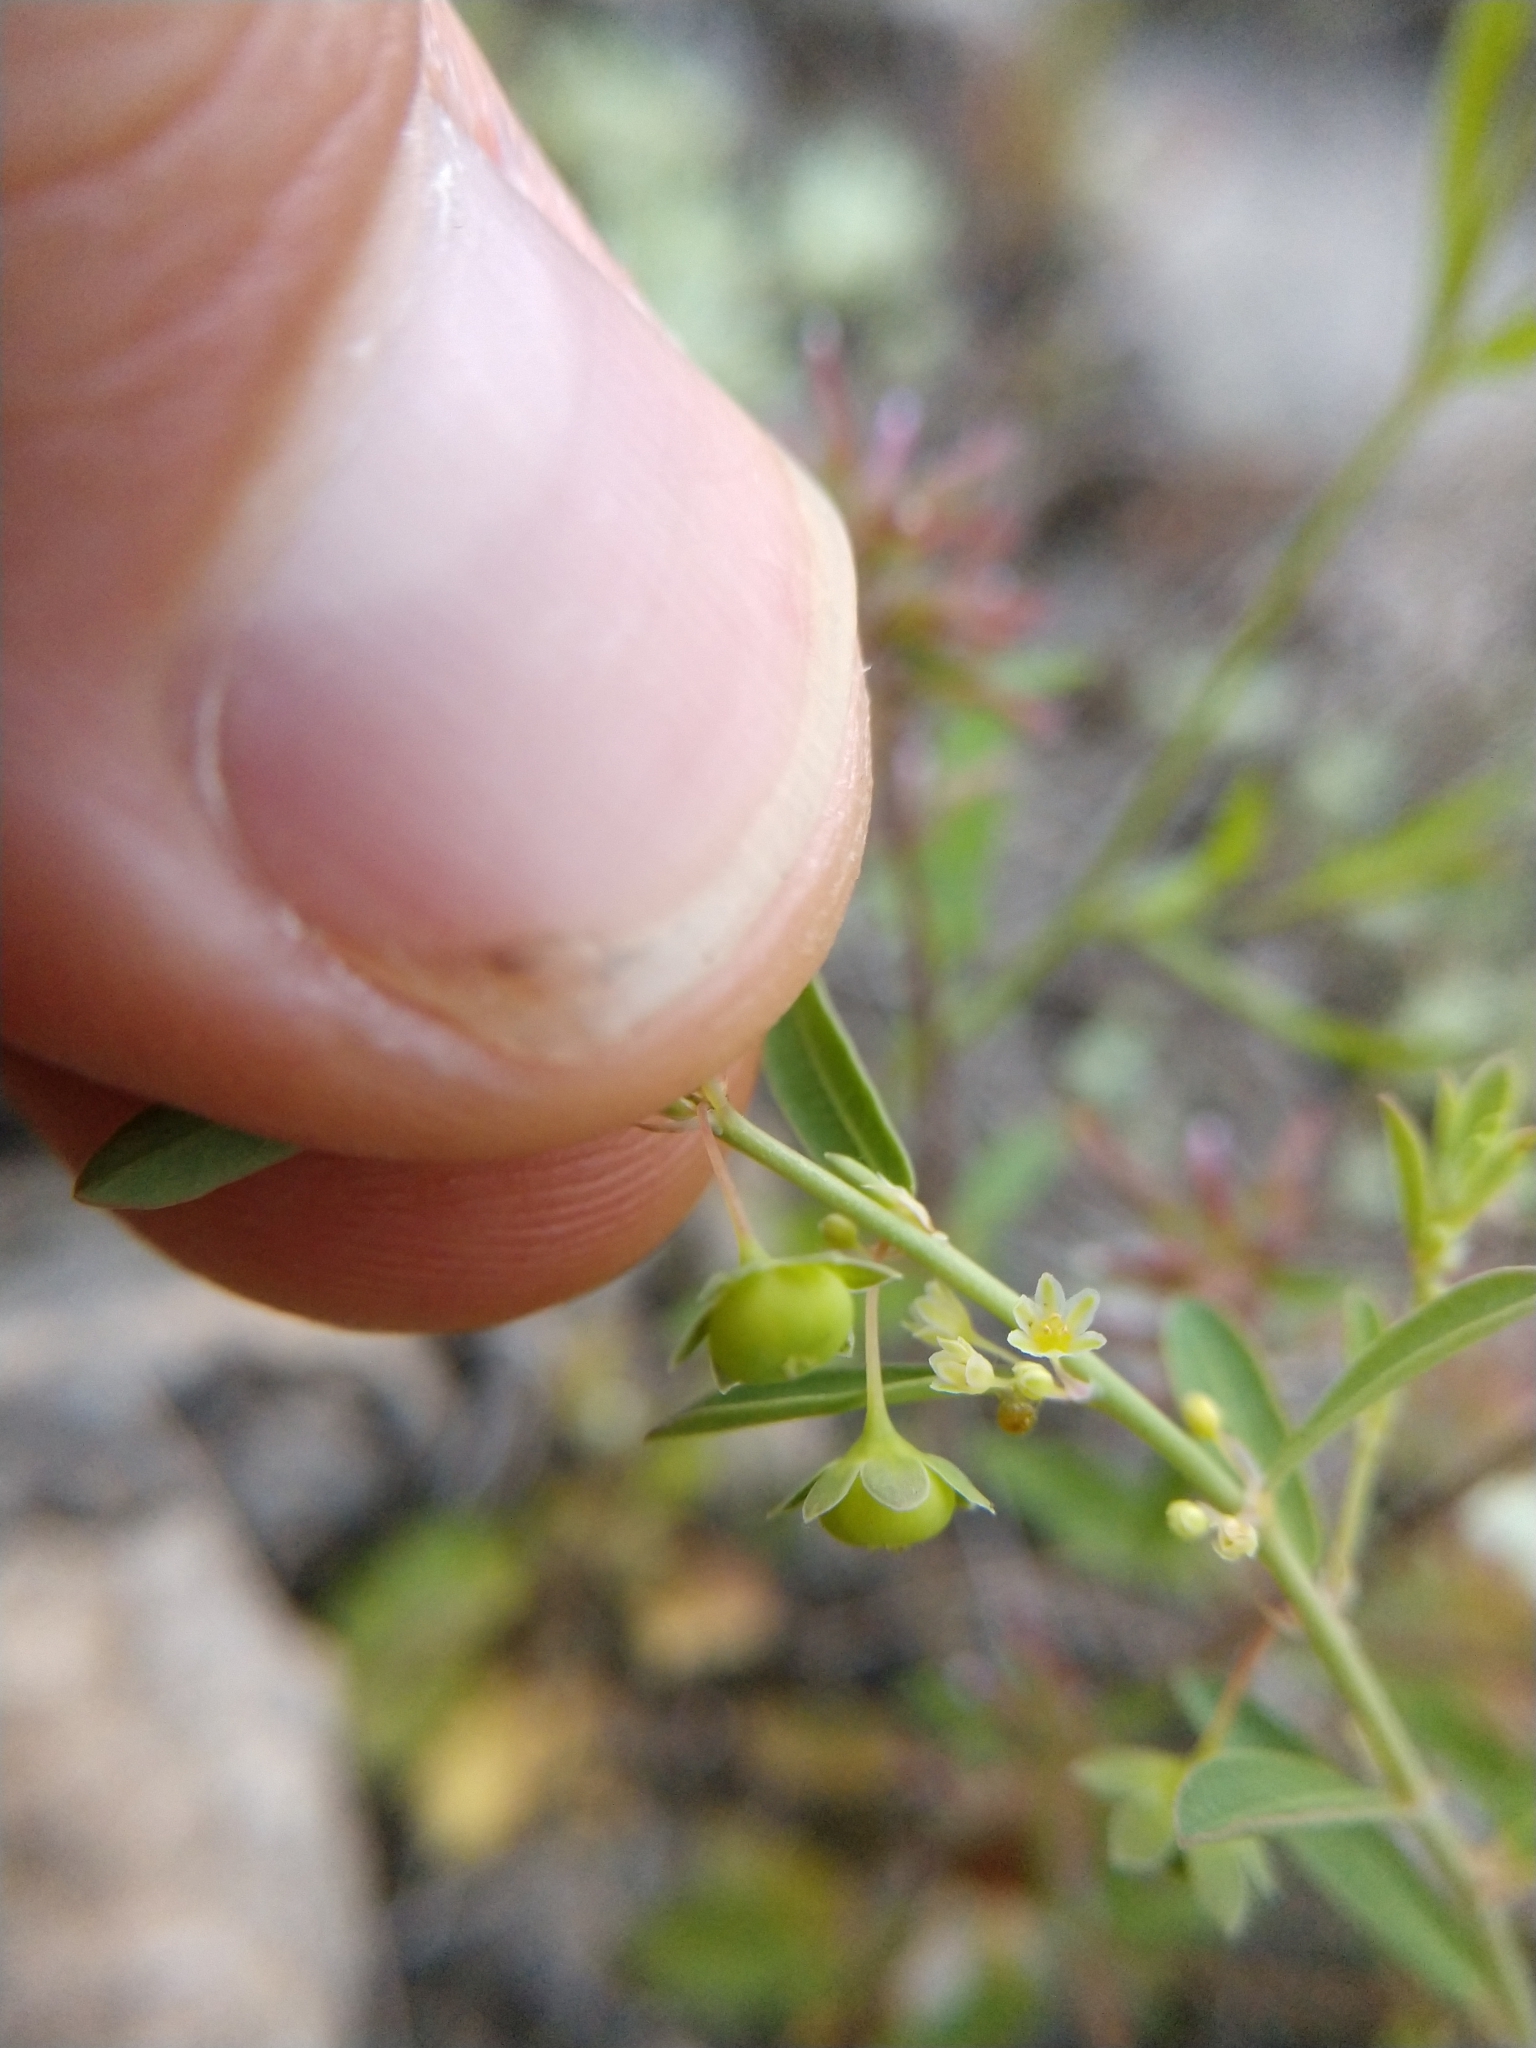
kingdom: Plantae
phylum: Tracheophyta
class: Magnoliopsida
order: Malpighiales
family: Phyllanthaceae
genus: Phyllanthus
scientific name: Phyllanthus polygonoides
